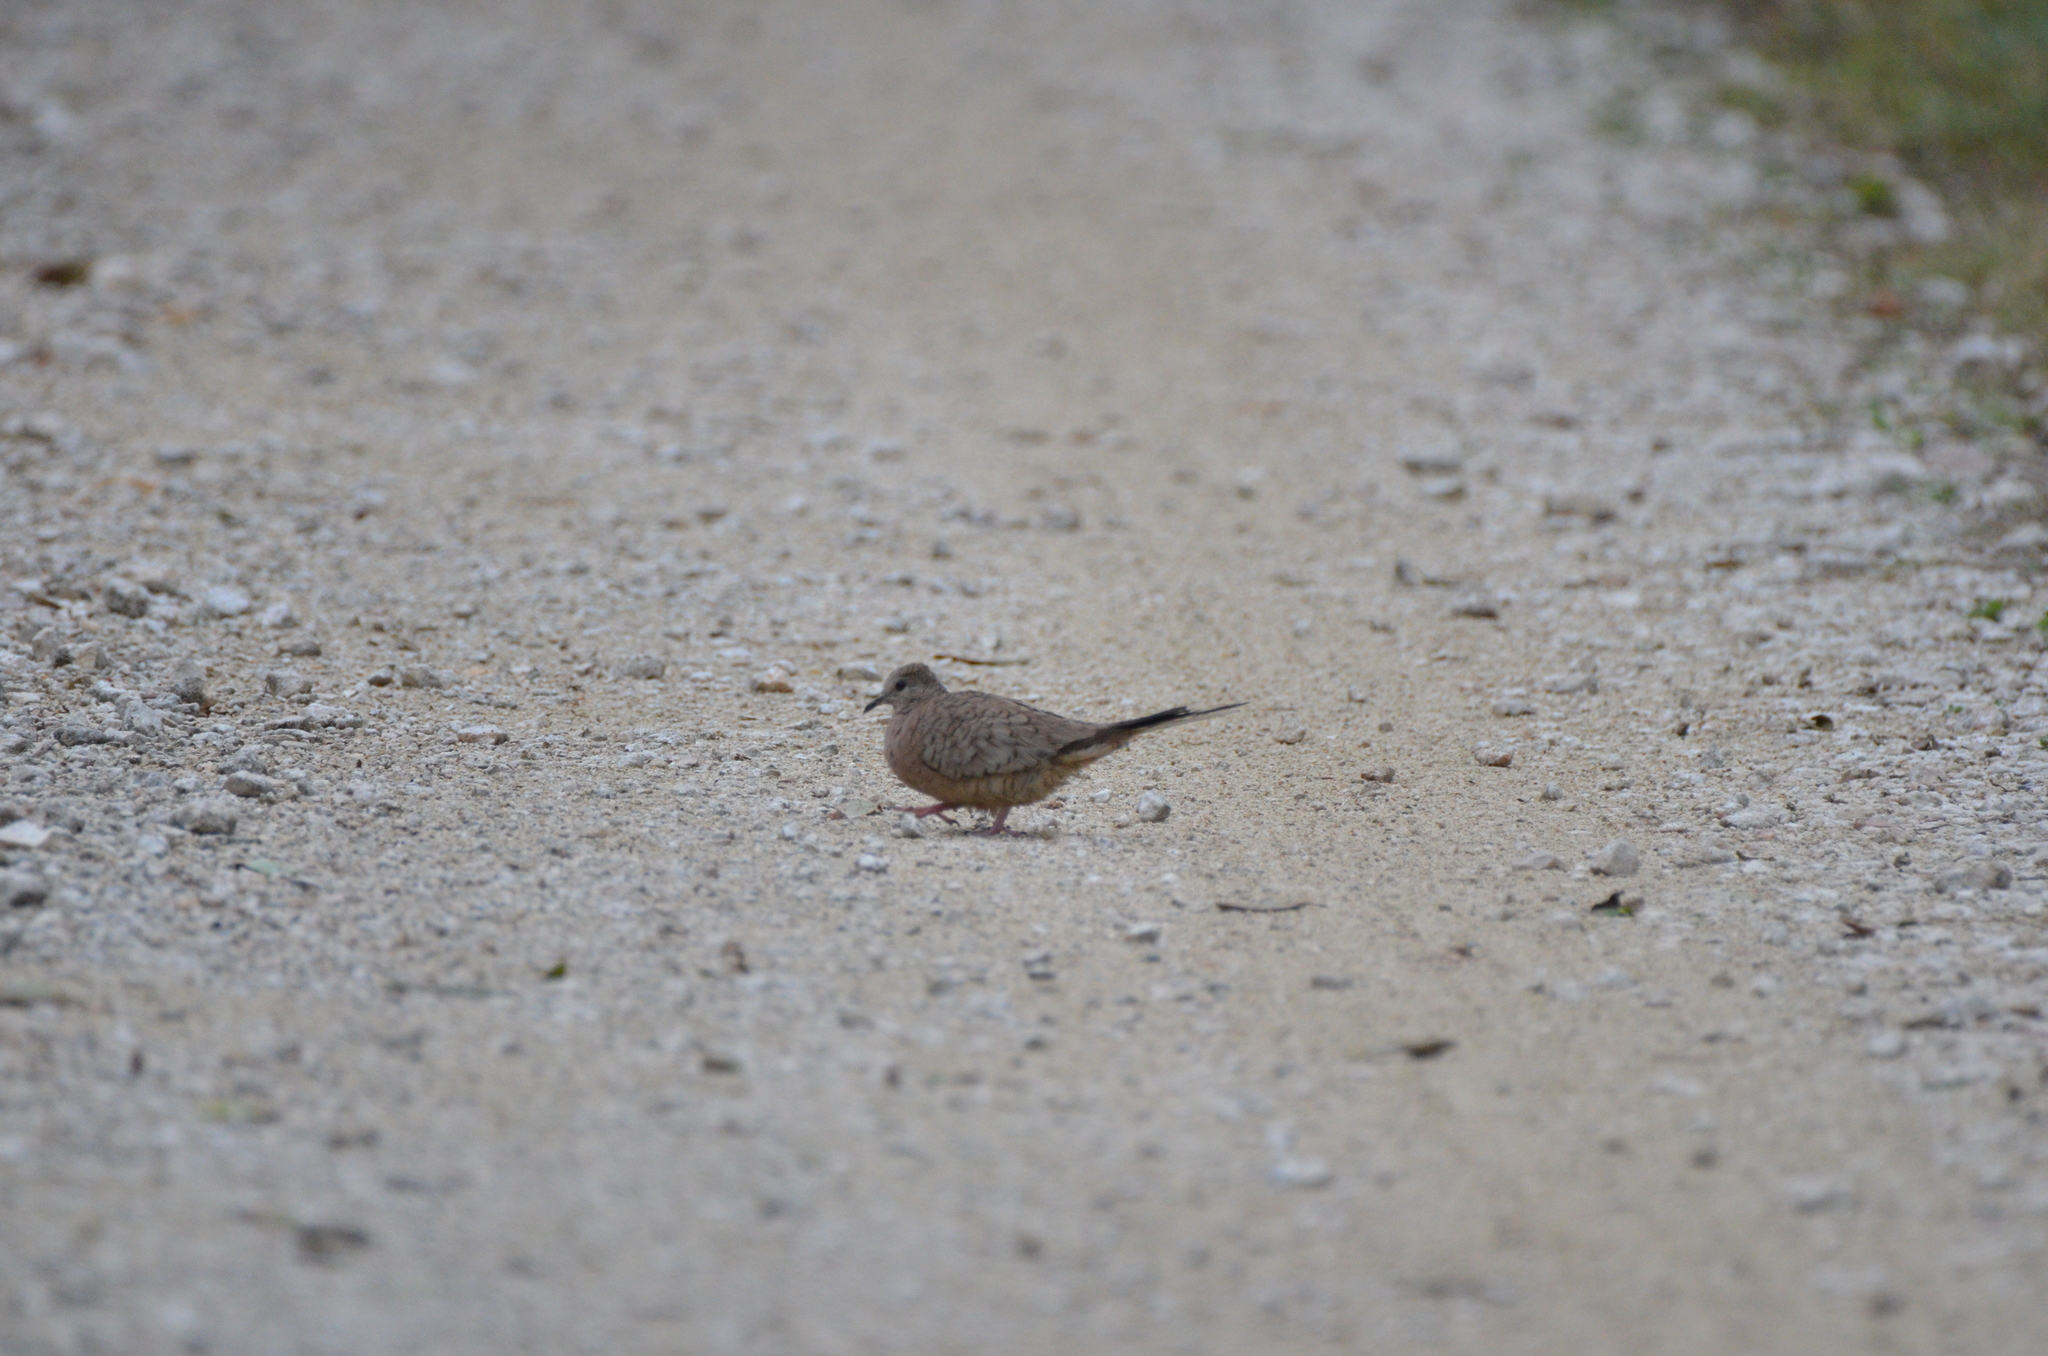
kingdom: Animalia
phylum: Chordata
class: Aves
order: Columbiformes
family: Columbidae
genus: Columbina
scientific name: Columbina inca
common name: Inca dove
